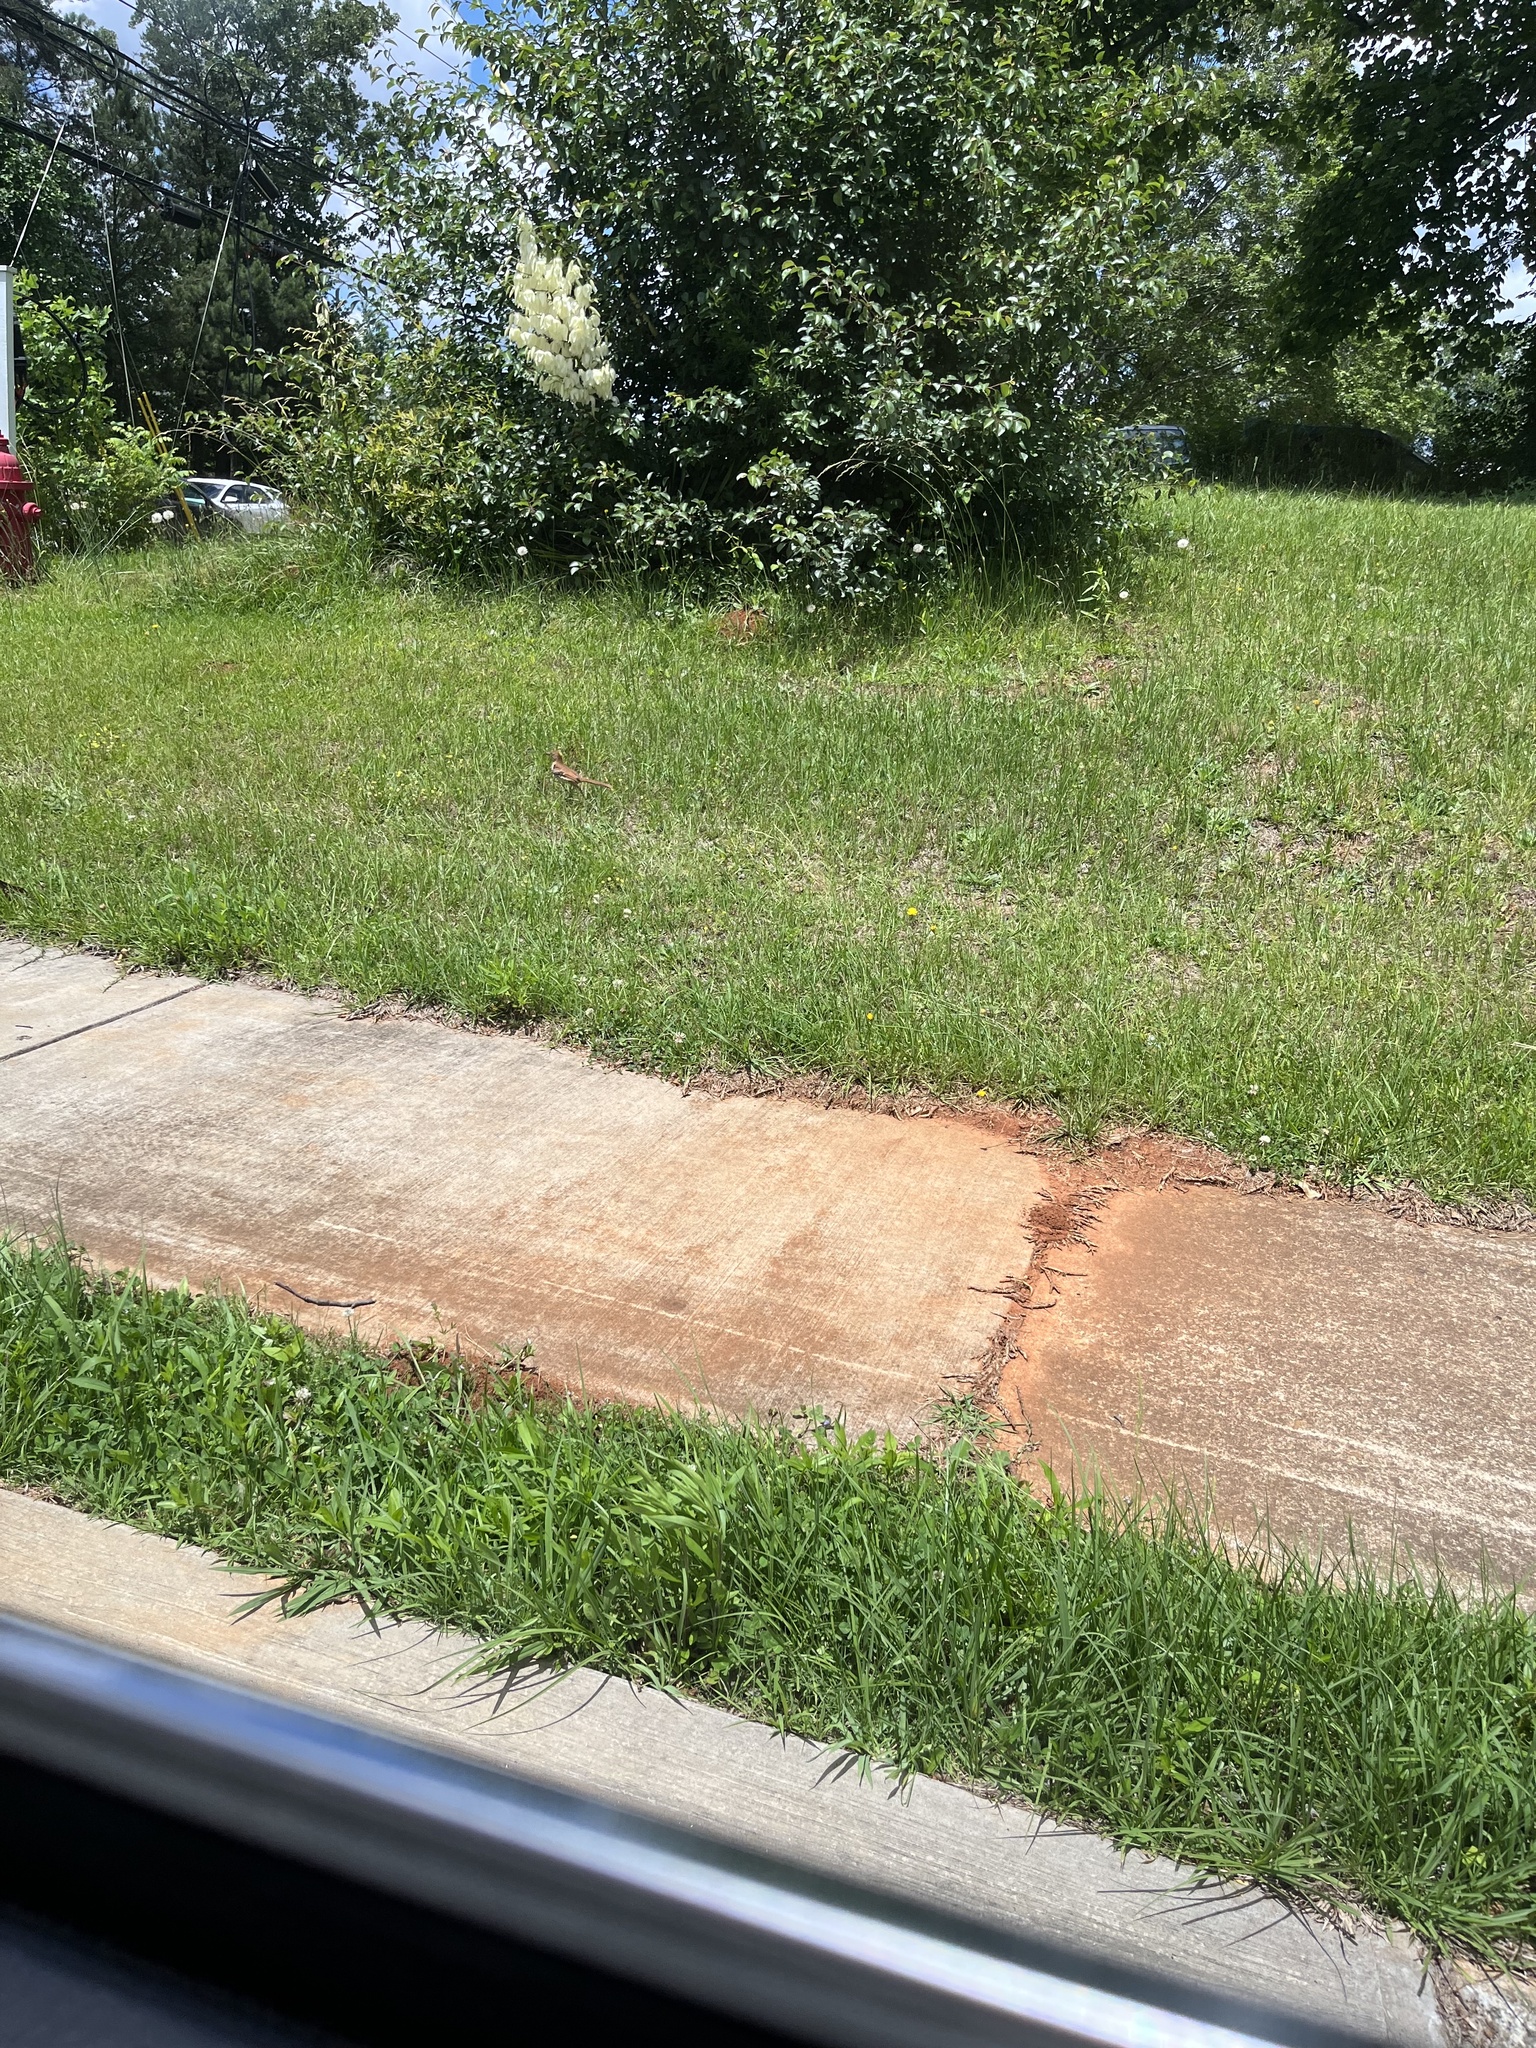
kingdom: Animalia
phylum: Chordata
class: Aves
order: Passeriformes
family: Mimidae
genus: Toxostoma
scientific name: Toxostoma rufum
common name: Brown thrasher
